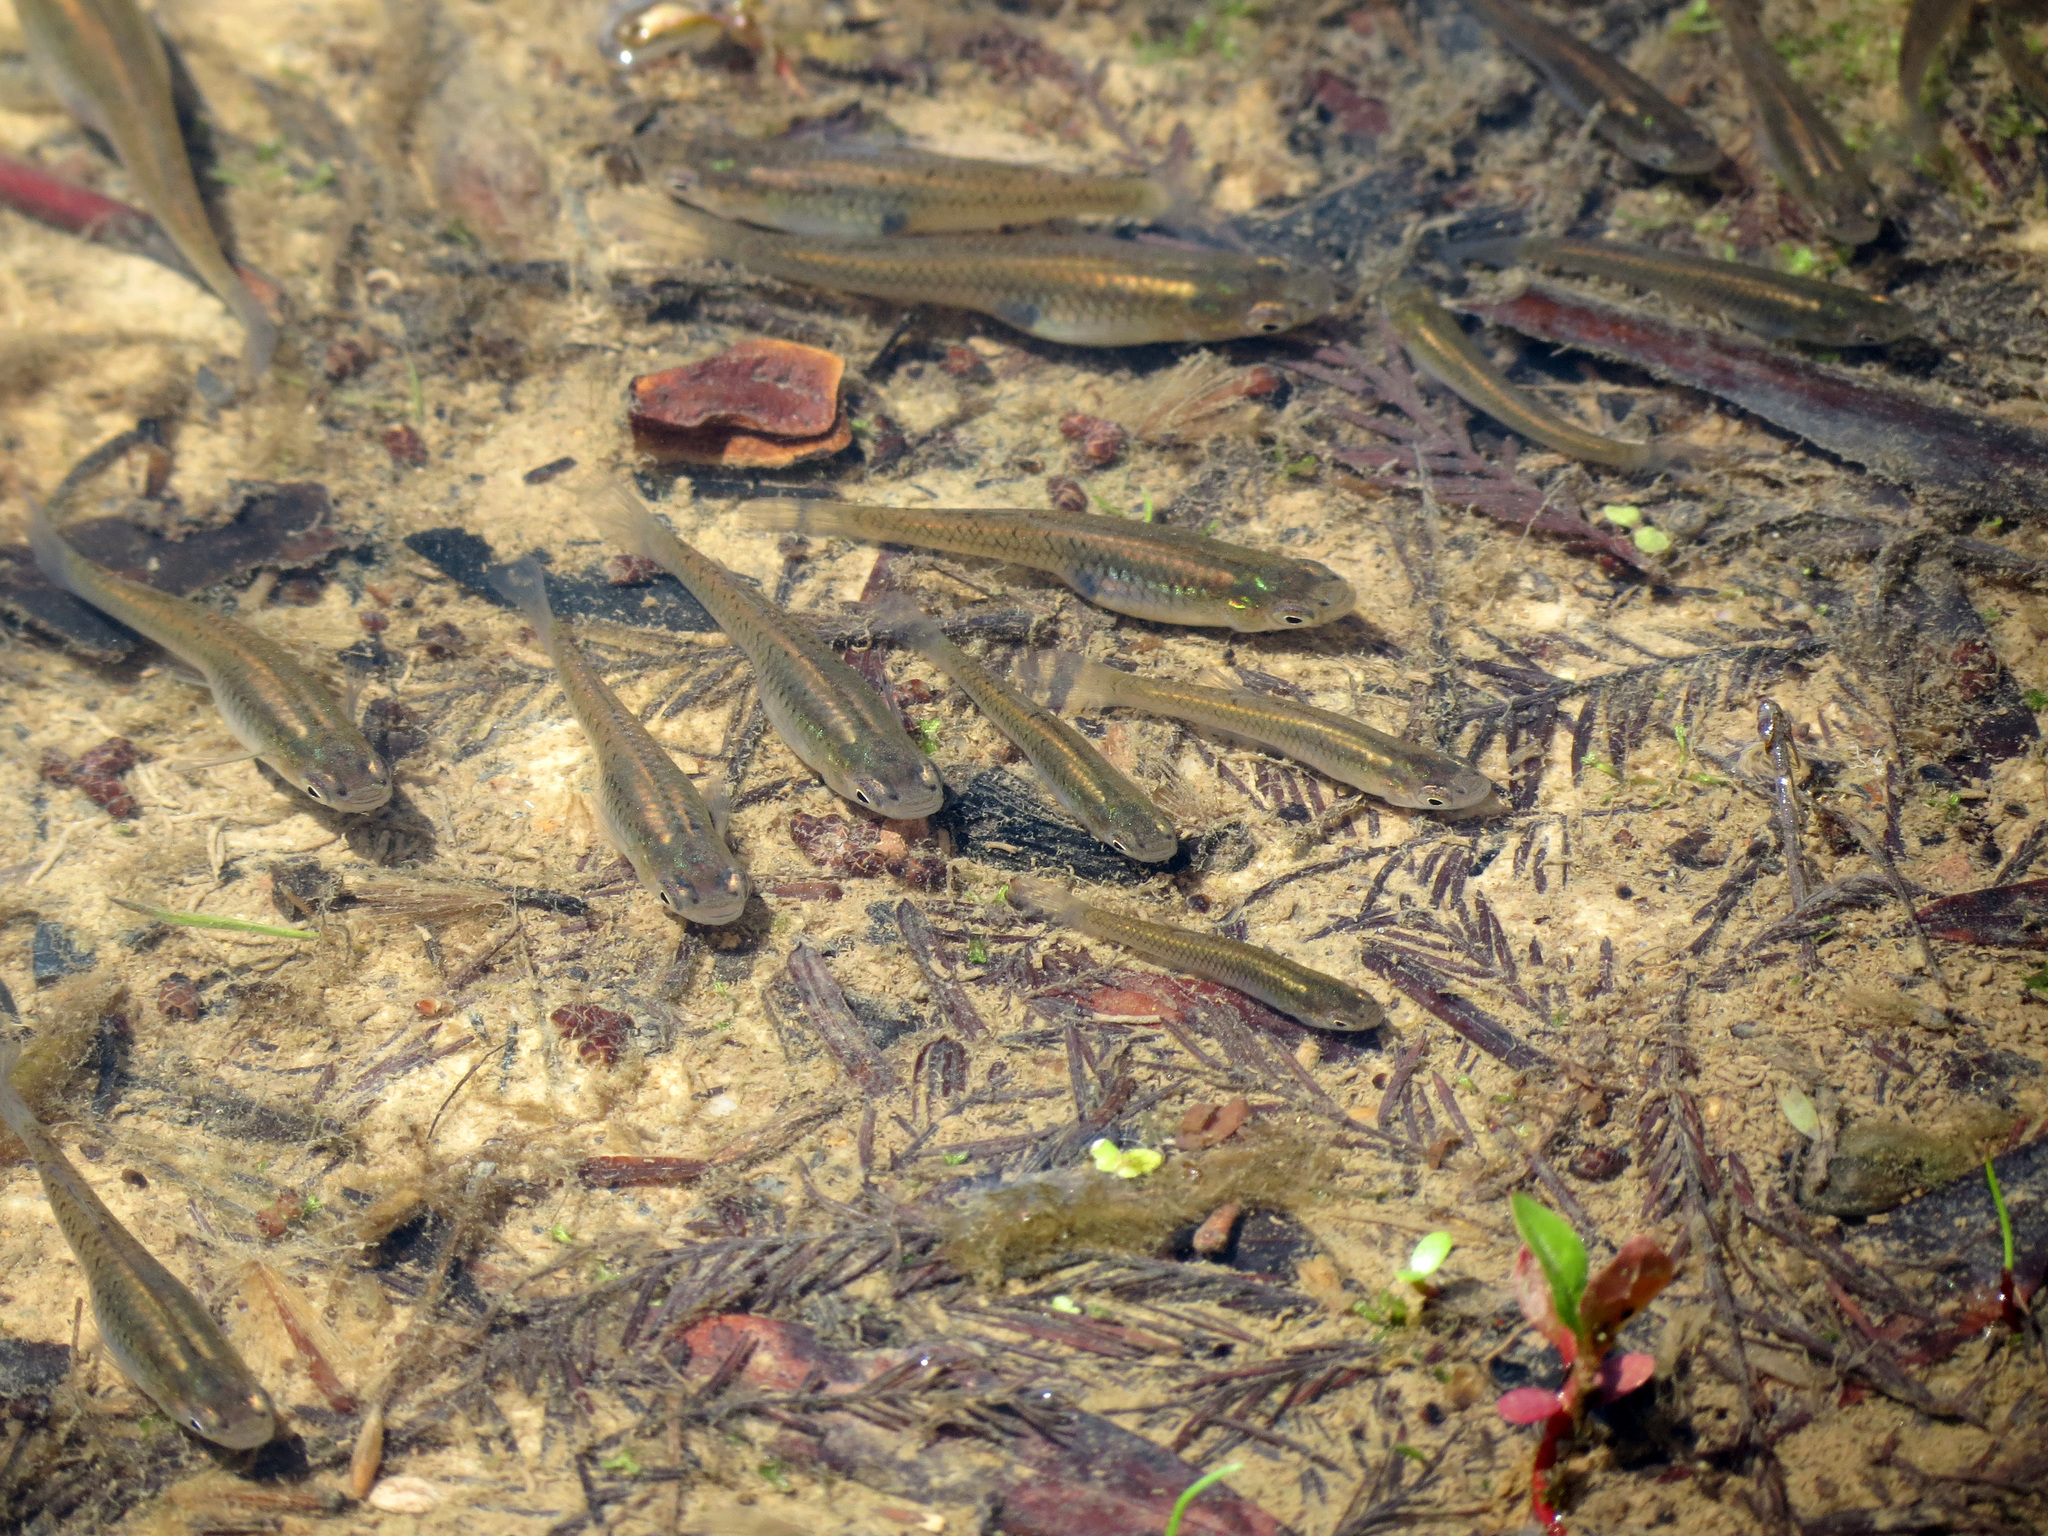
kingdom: Animalia
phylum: Chordata
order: Cyprinodontiformes
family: Poeciliidae
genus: Gambusia
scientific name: Gambusia holbrooki
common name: Eastern mosquitofish
